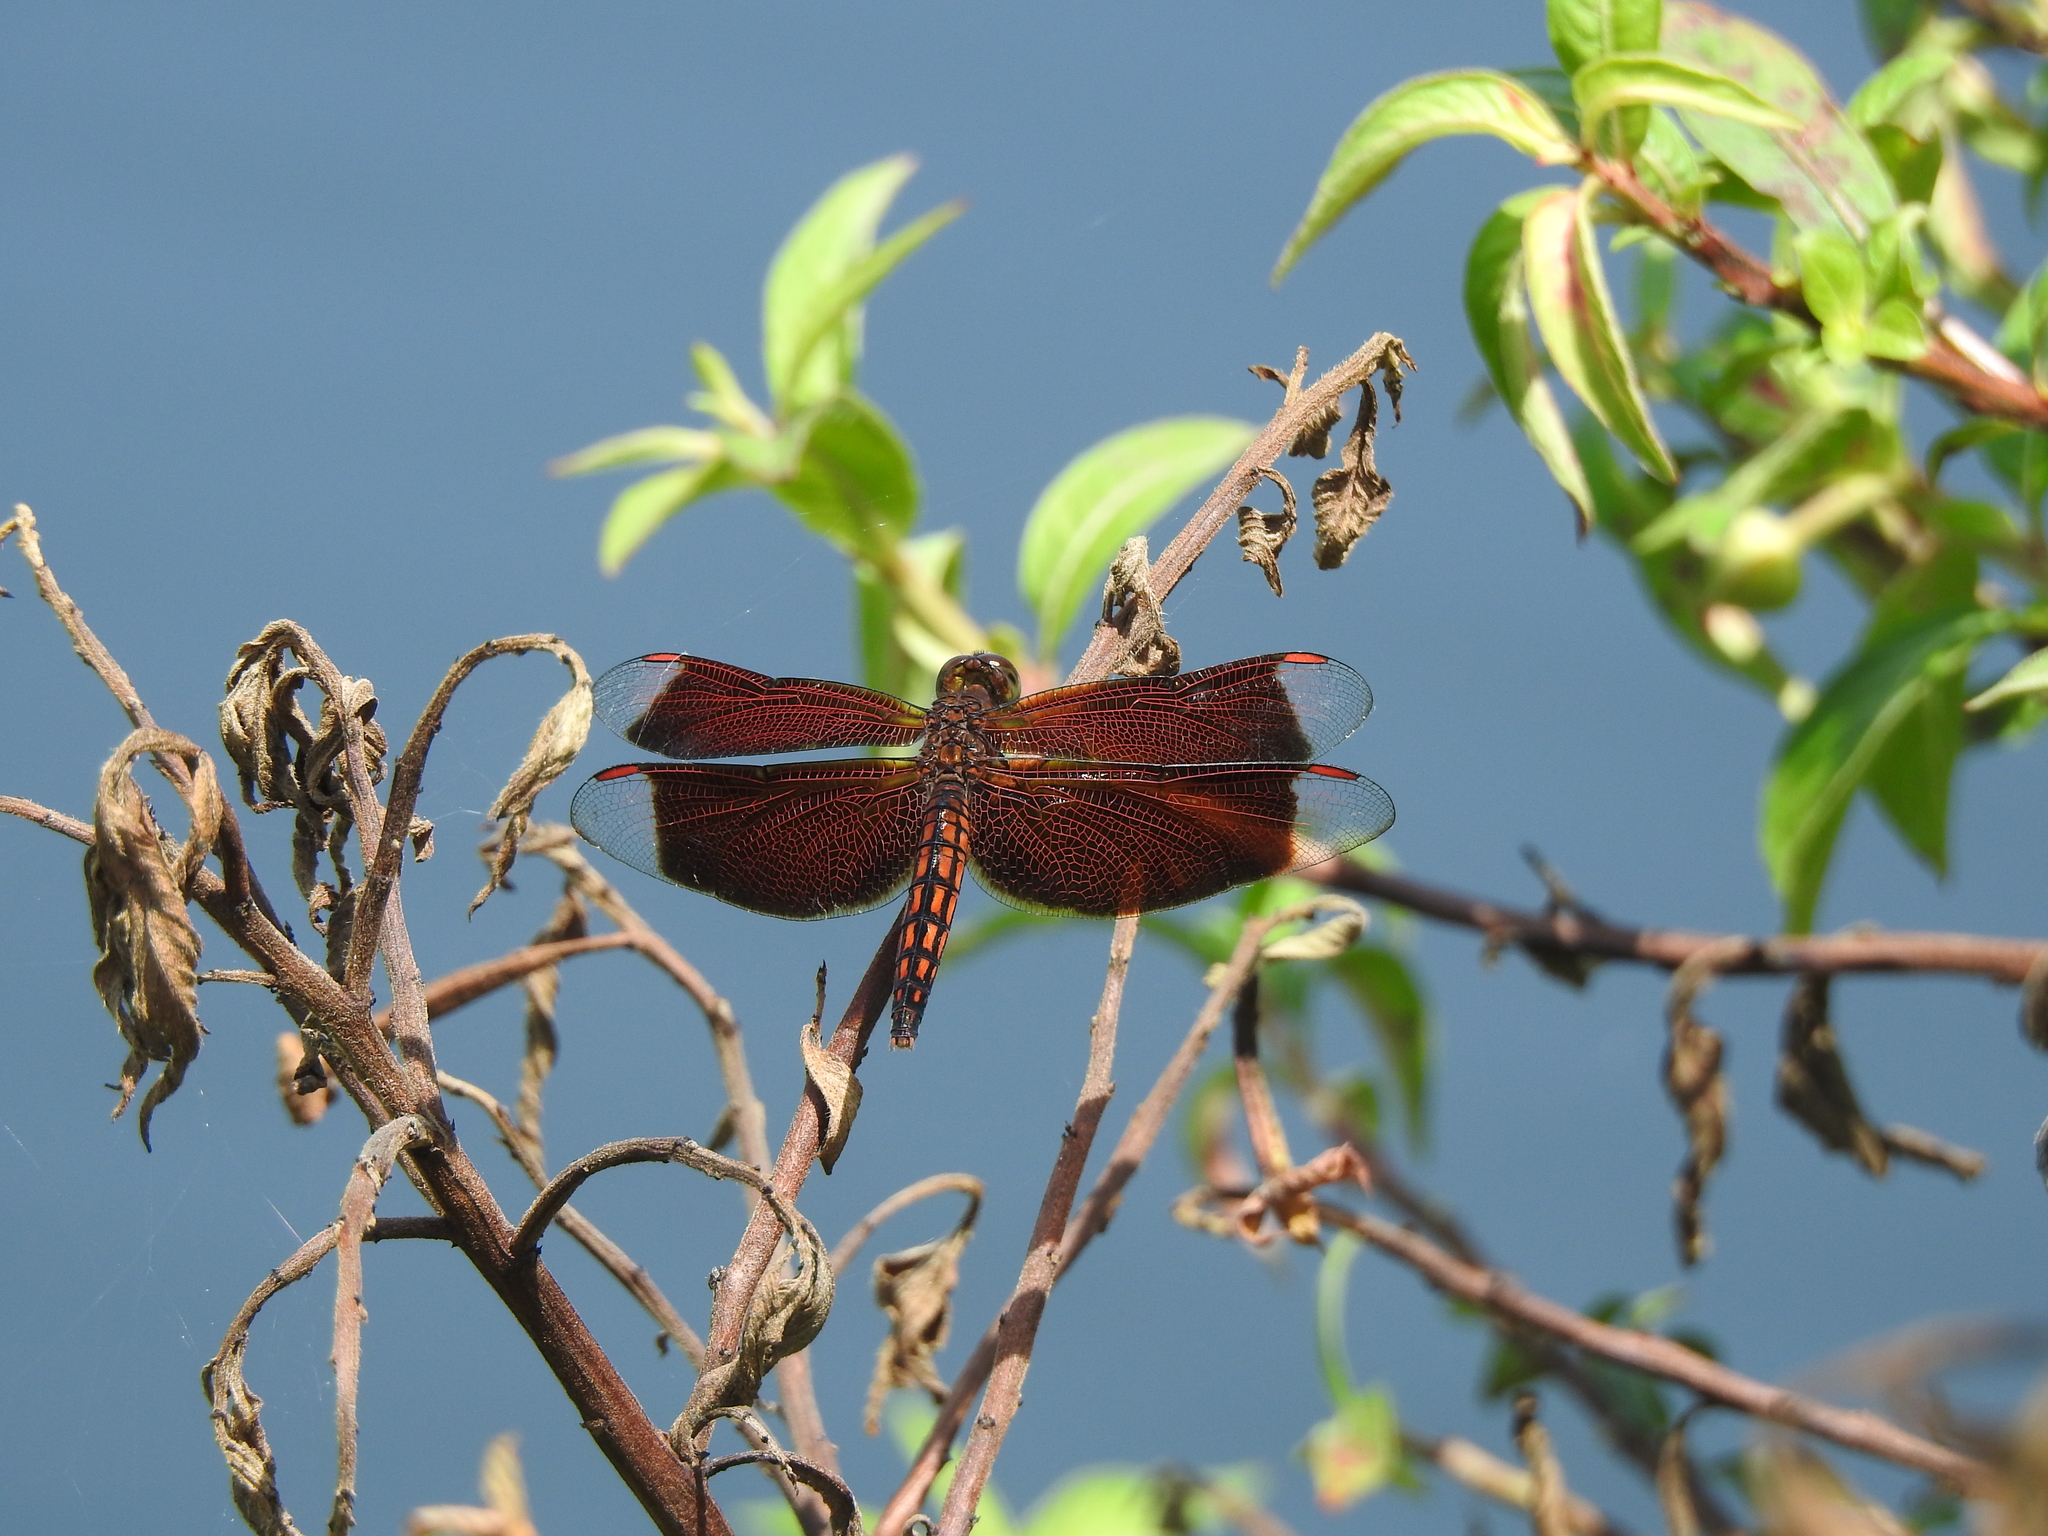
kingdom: Animalia
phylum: Arthropoda
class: Insecta
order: Odonata
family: Libellulidae
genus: Neurothemis
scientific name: Neurothemis taiwanensis
